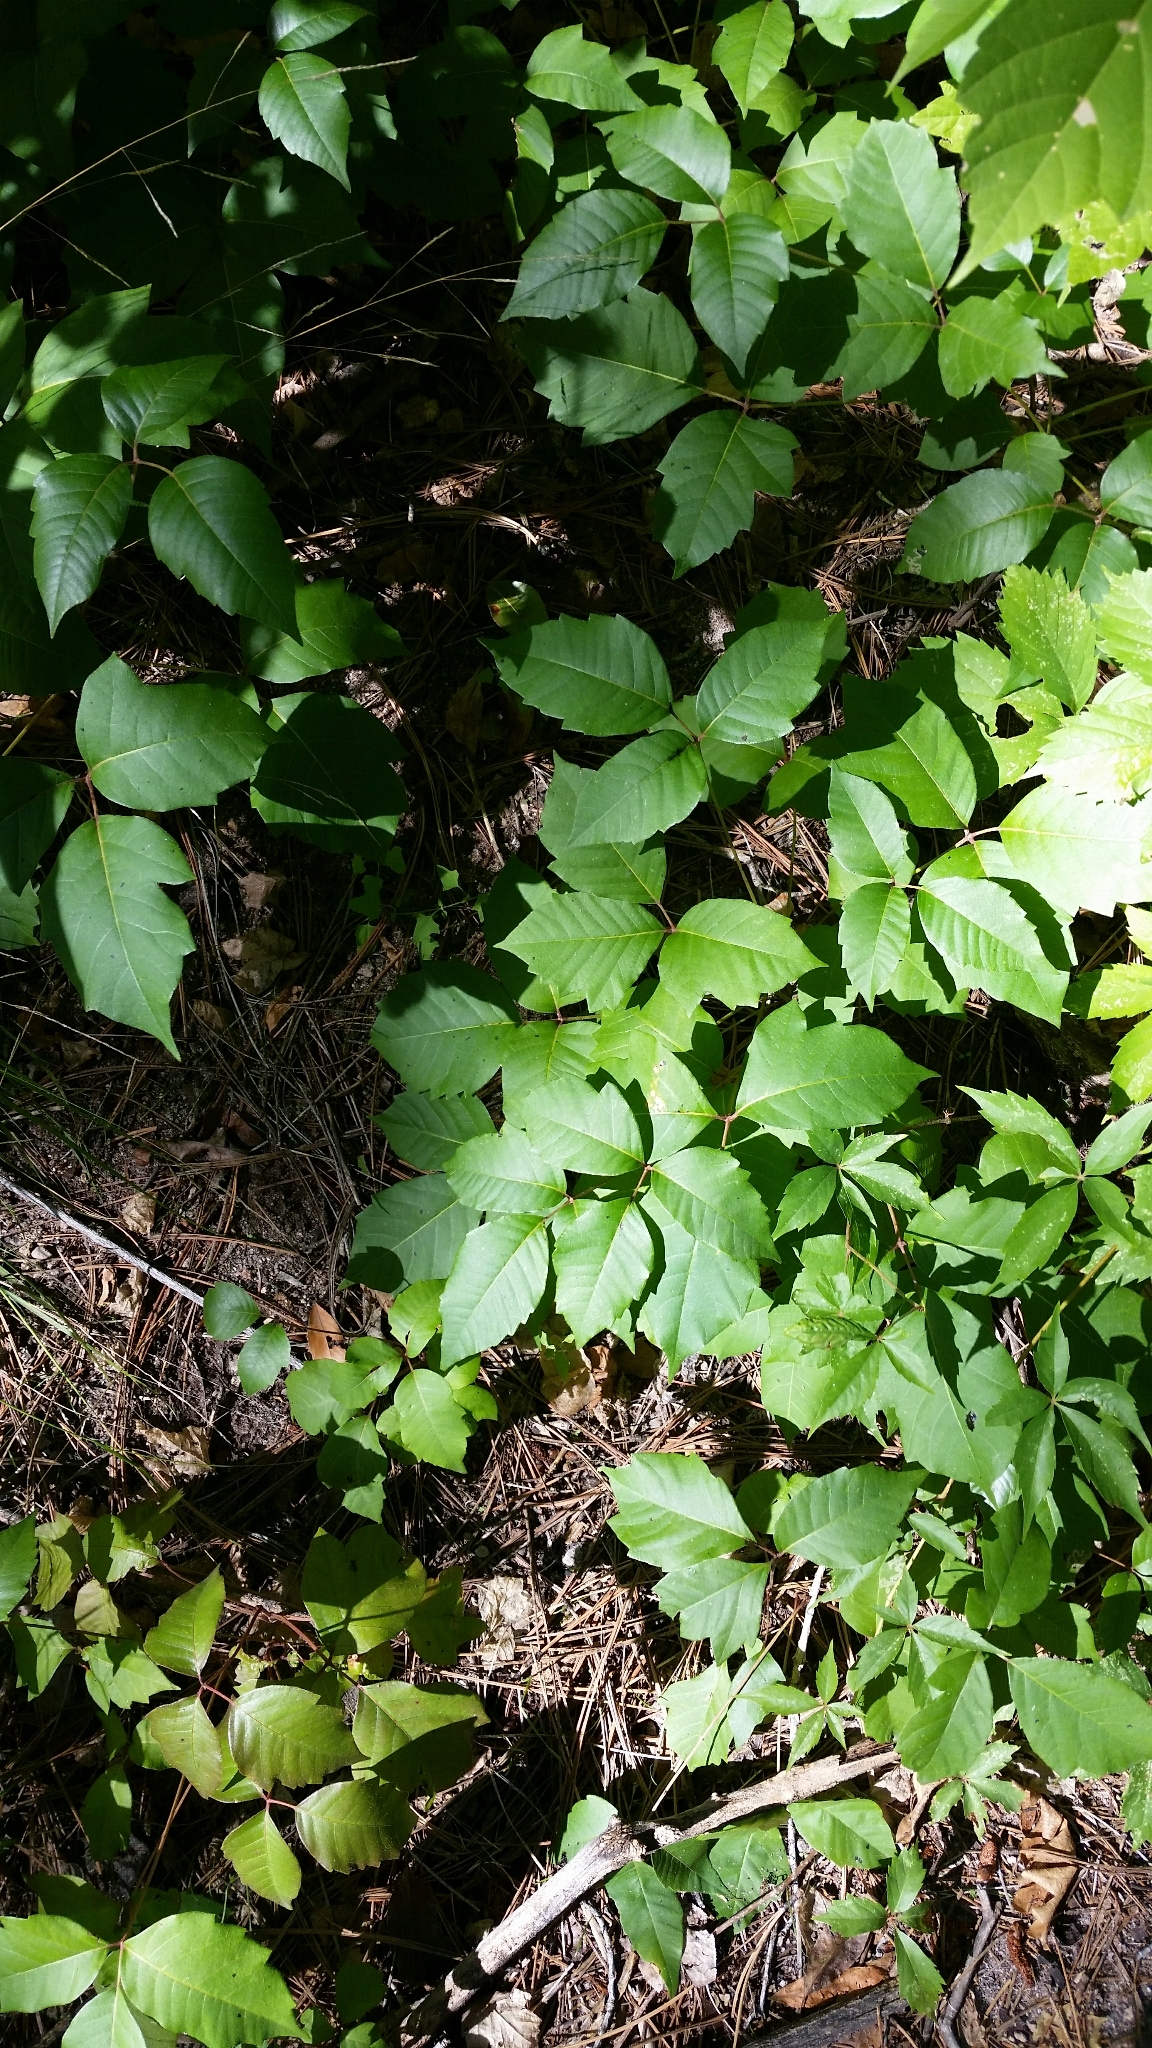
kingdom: Plantae
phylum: Tracheophyta
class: Magnoliopsida
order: Sapindales
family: Anacardiaceae
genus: Toxicodendron
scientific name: Toxicodendron rydbergii
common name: Rydberg's poison-ivy
